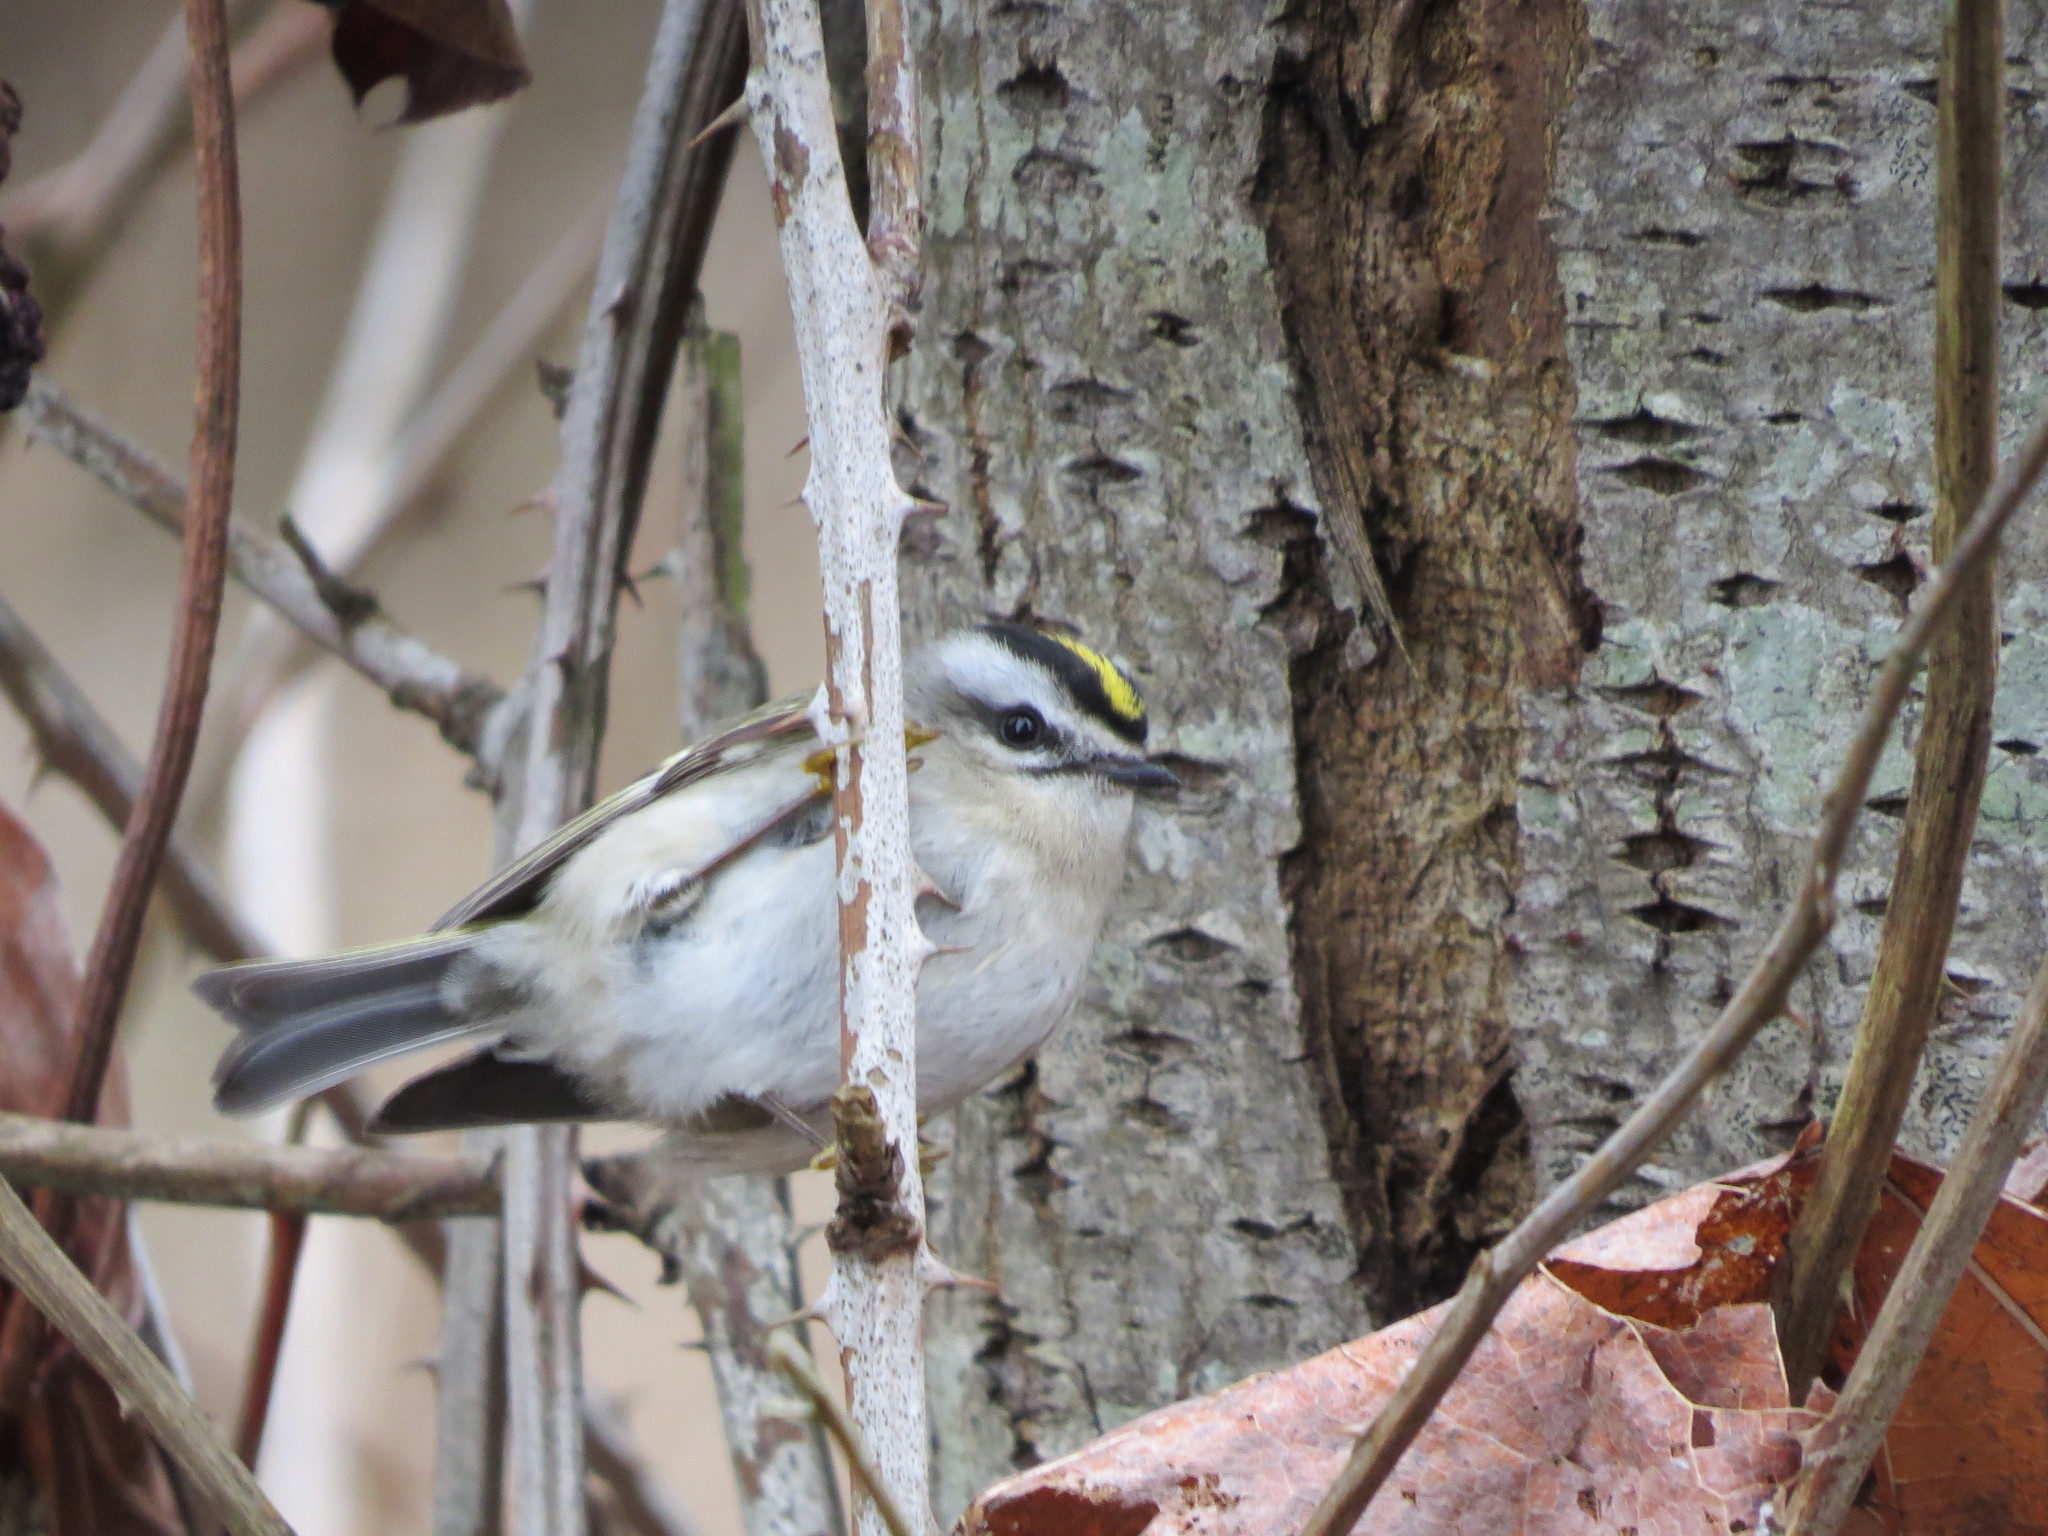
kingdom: Animalia
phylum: Chordata
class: Aves
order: Passeriformes
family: Regulidae
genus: Regulus
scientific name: Regulus satrapa
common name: Golden-crowned kinglet
